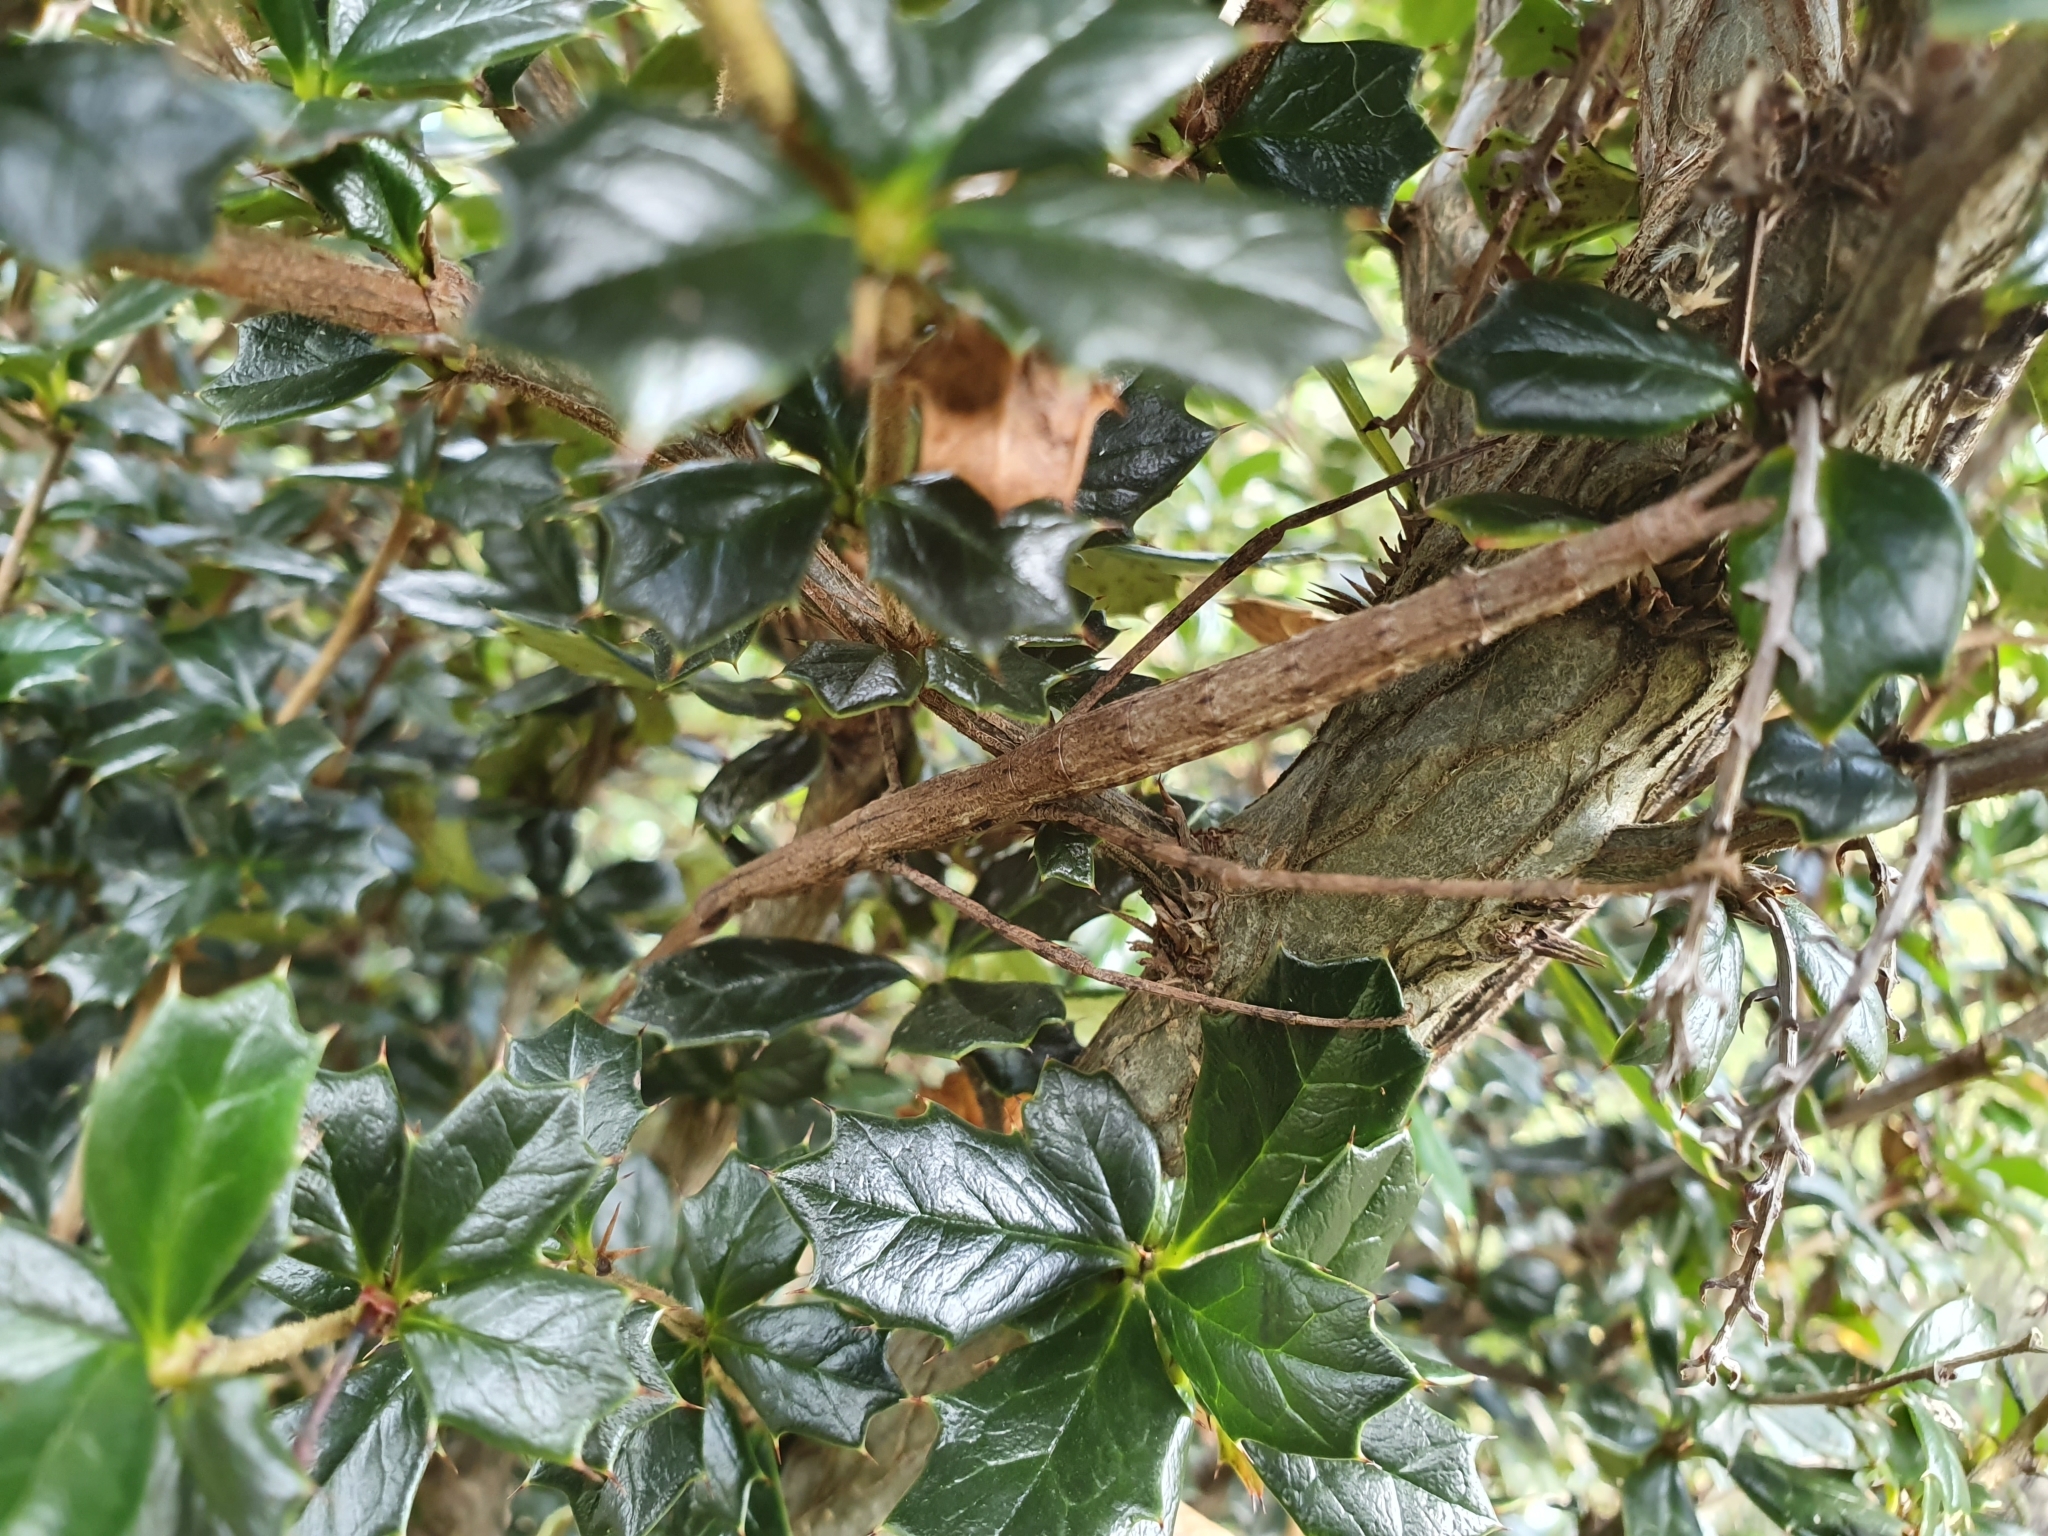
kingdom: Animalia
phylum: Arthropoda
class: Insecta
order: Phasmida
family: Phasmatidae
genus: Clitarchus
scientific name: Clitarchus hookeri
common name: Smooth stick insect
